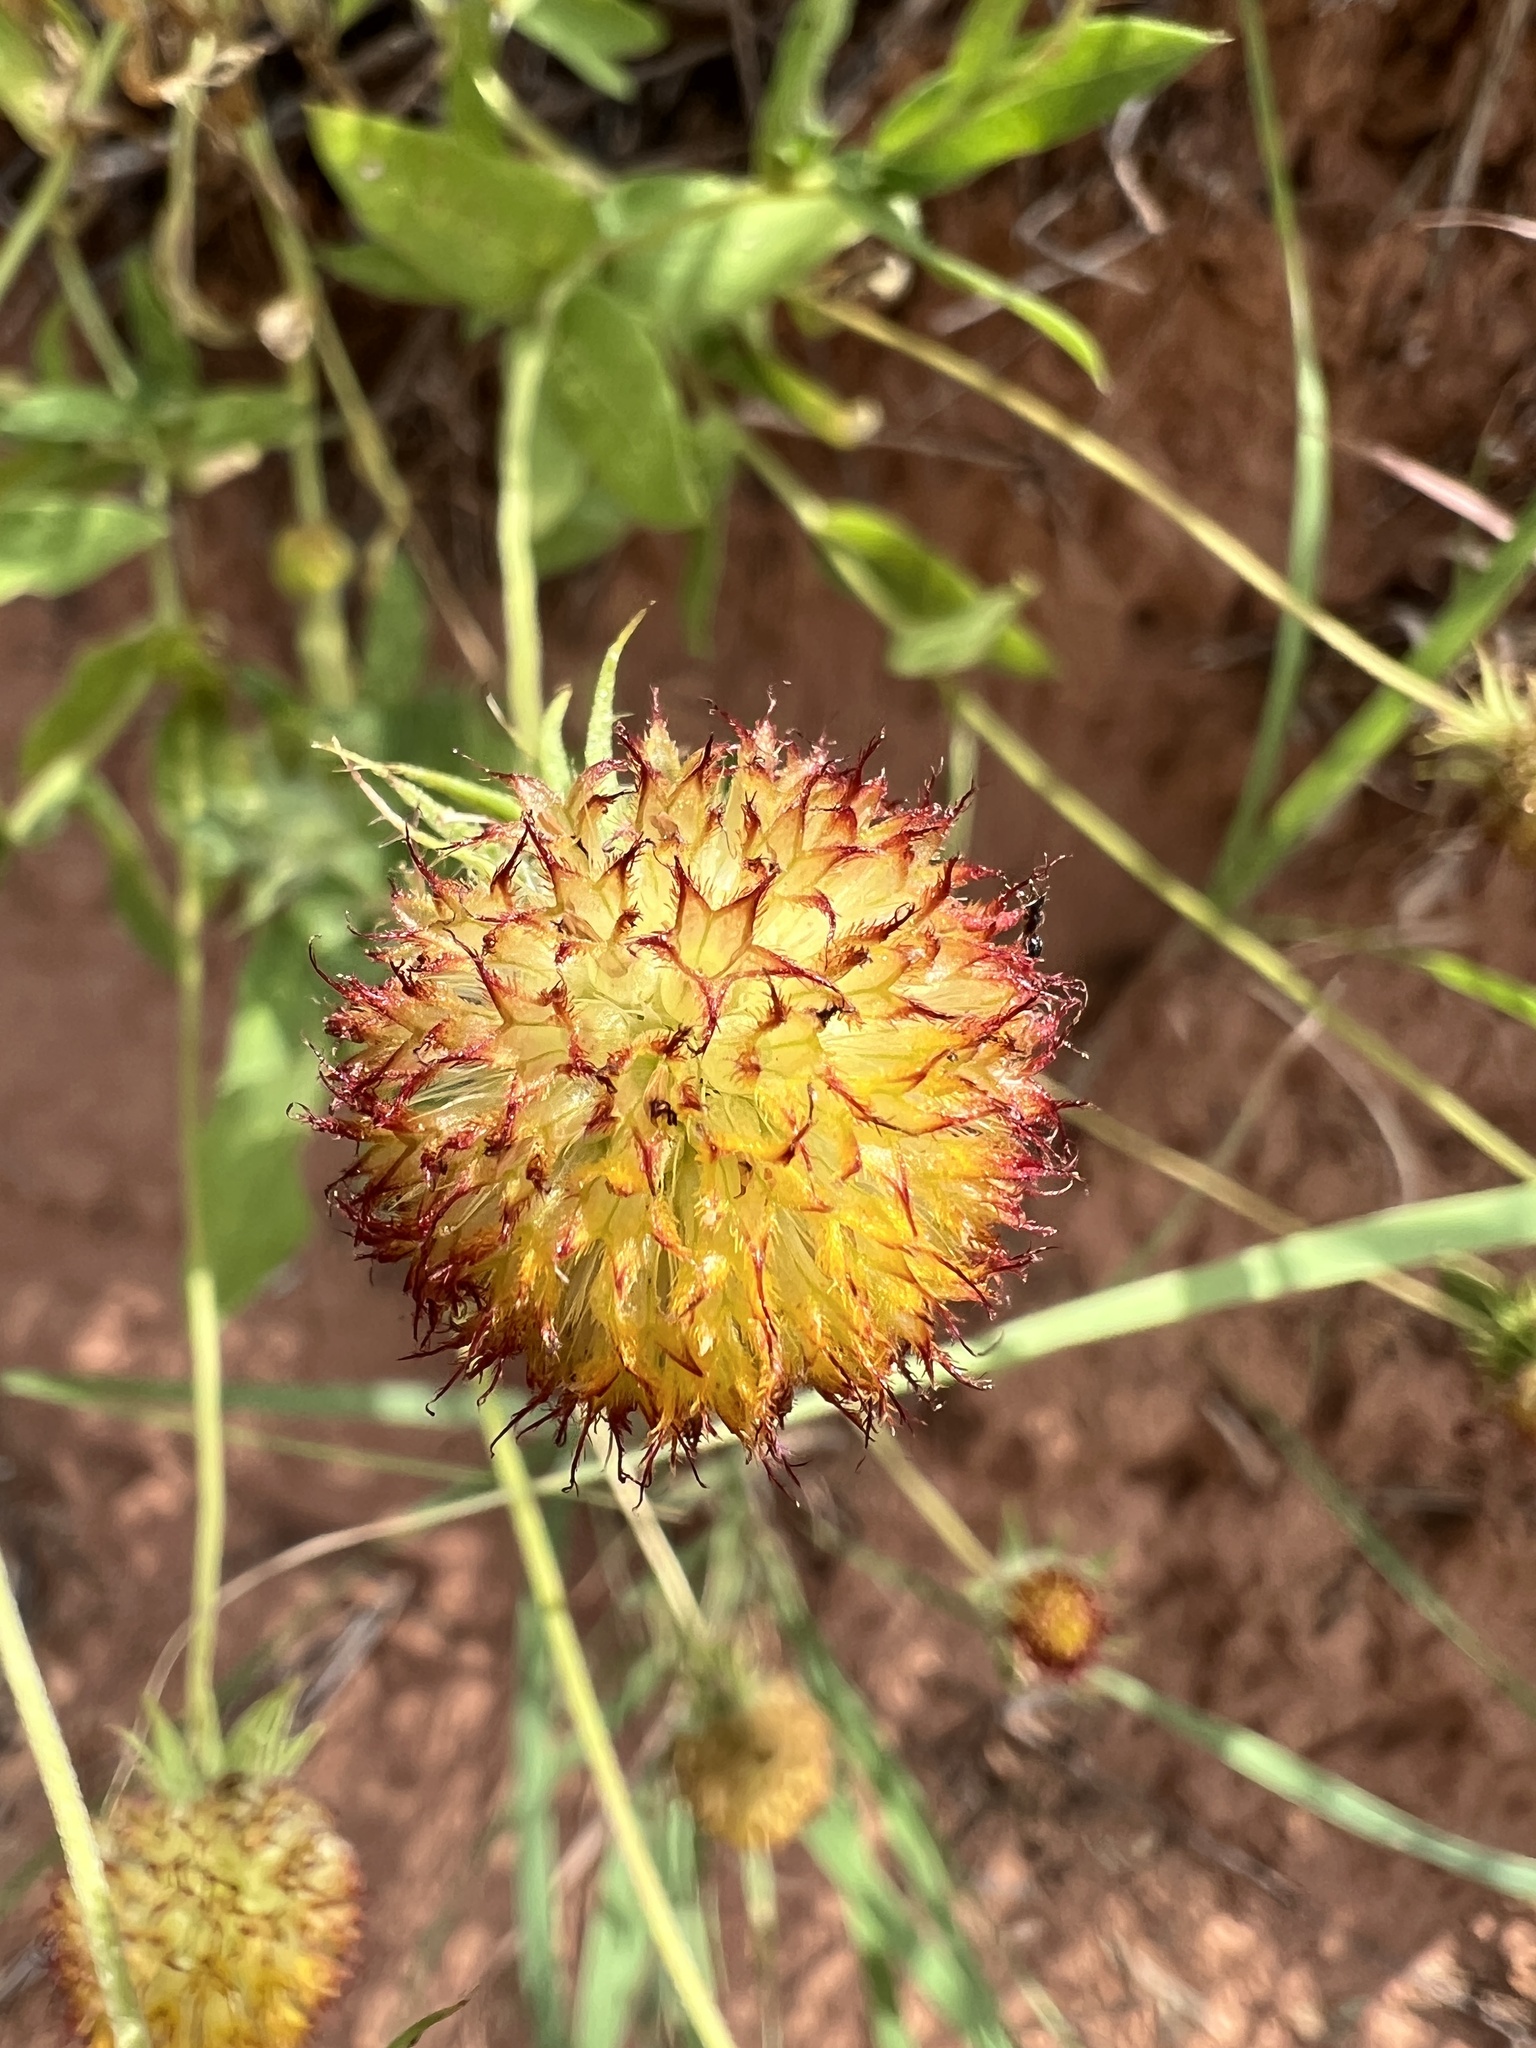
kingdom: Plantae
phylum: Tracheophyta
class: Magnoliopsida
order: Asterales
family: Asteraceae
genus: Gaillardia
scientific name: Gaillardia pulchella
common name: Firewheel
